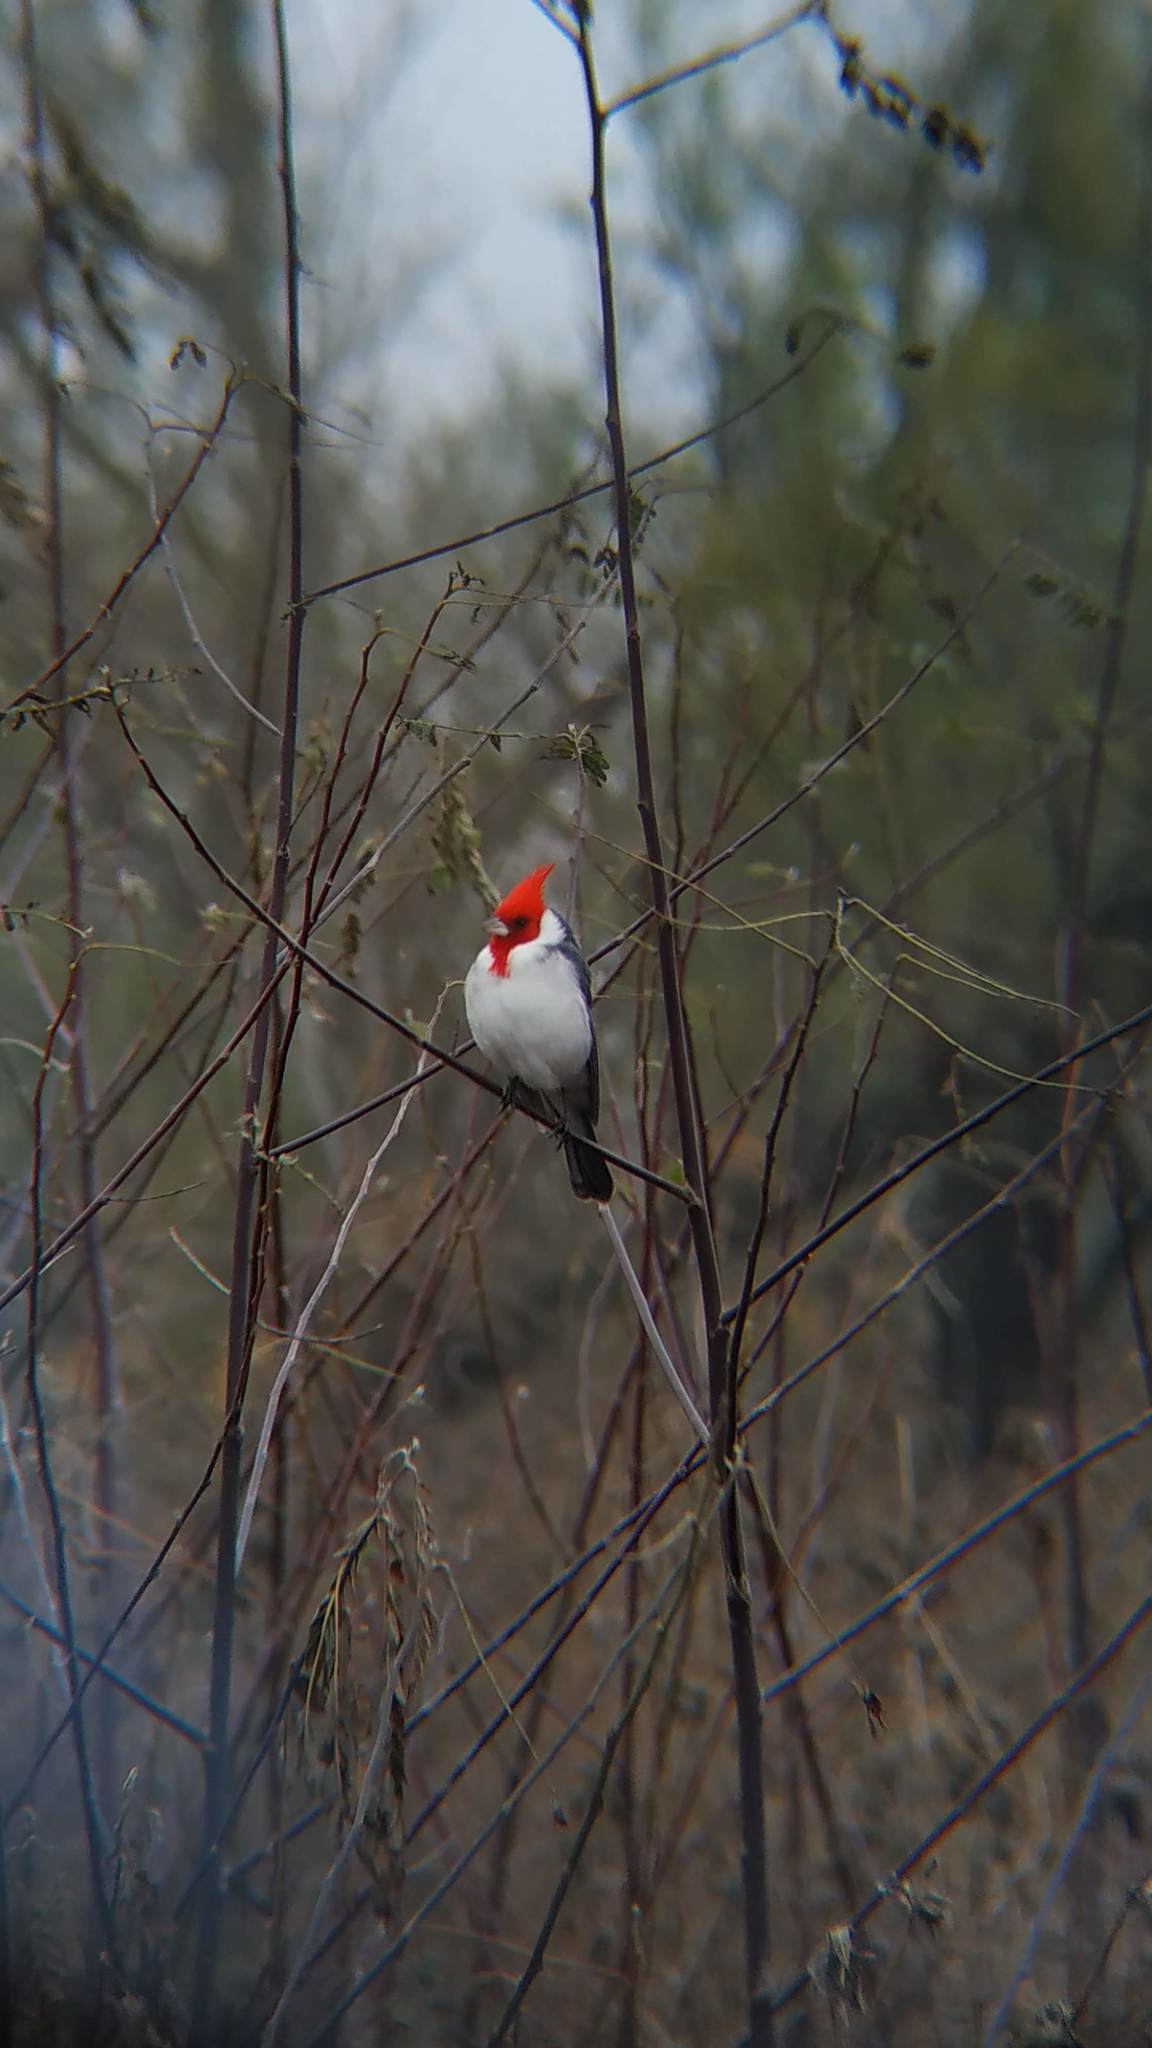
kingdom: Animalia
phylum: Chordata
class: Aves
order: Passeriformes
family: Thraupidae
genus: Paroaria
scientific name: Paroaria coronata
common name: Red-crested cardinal
